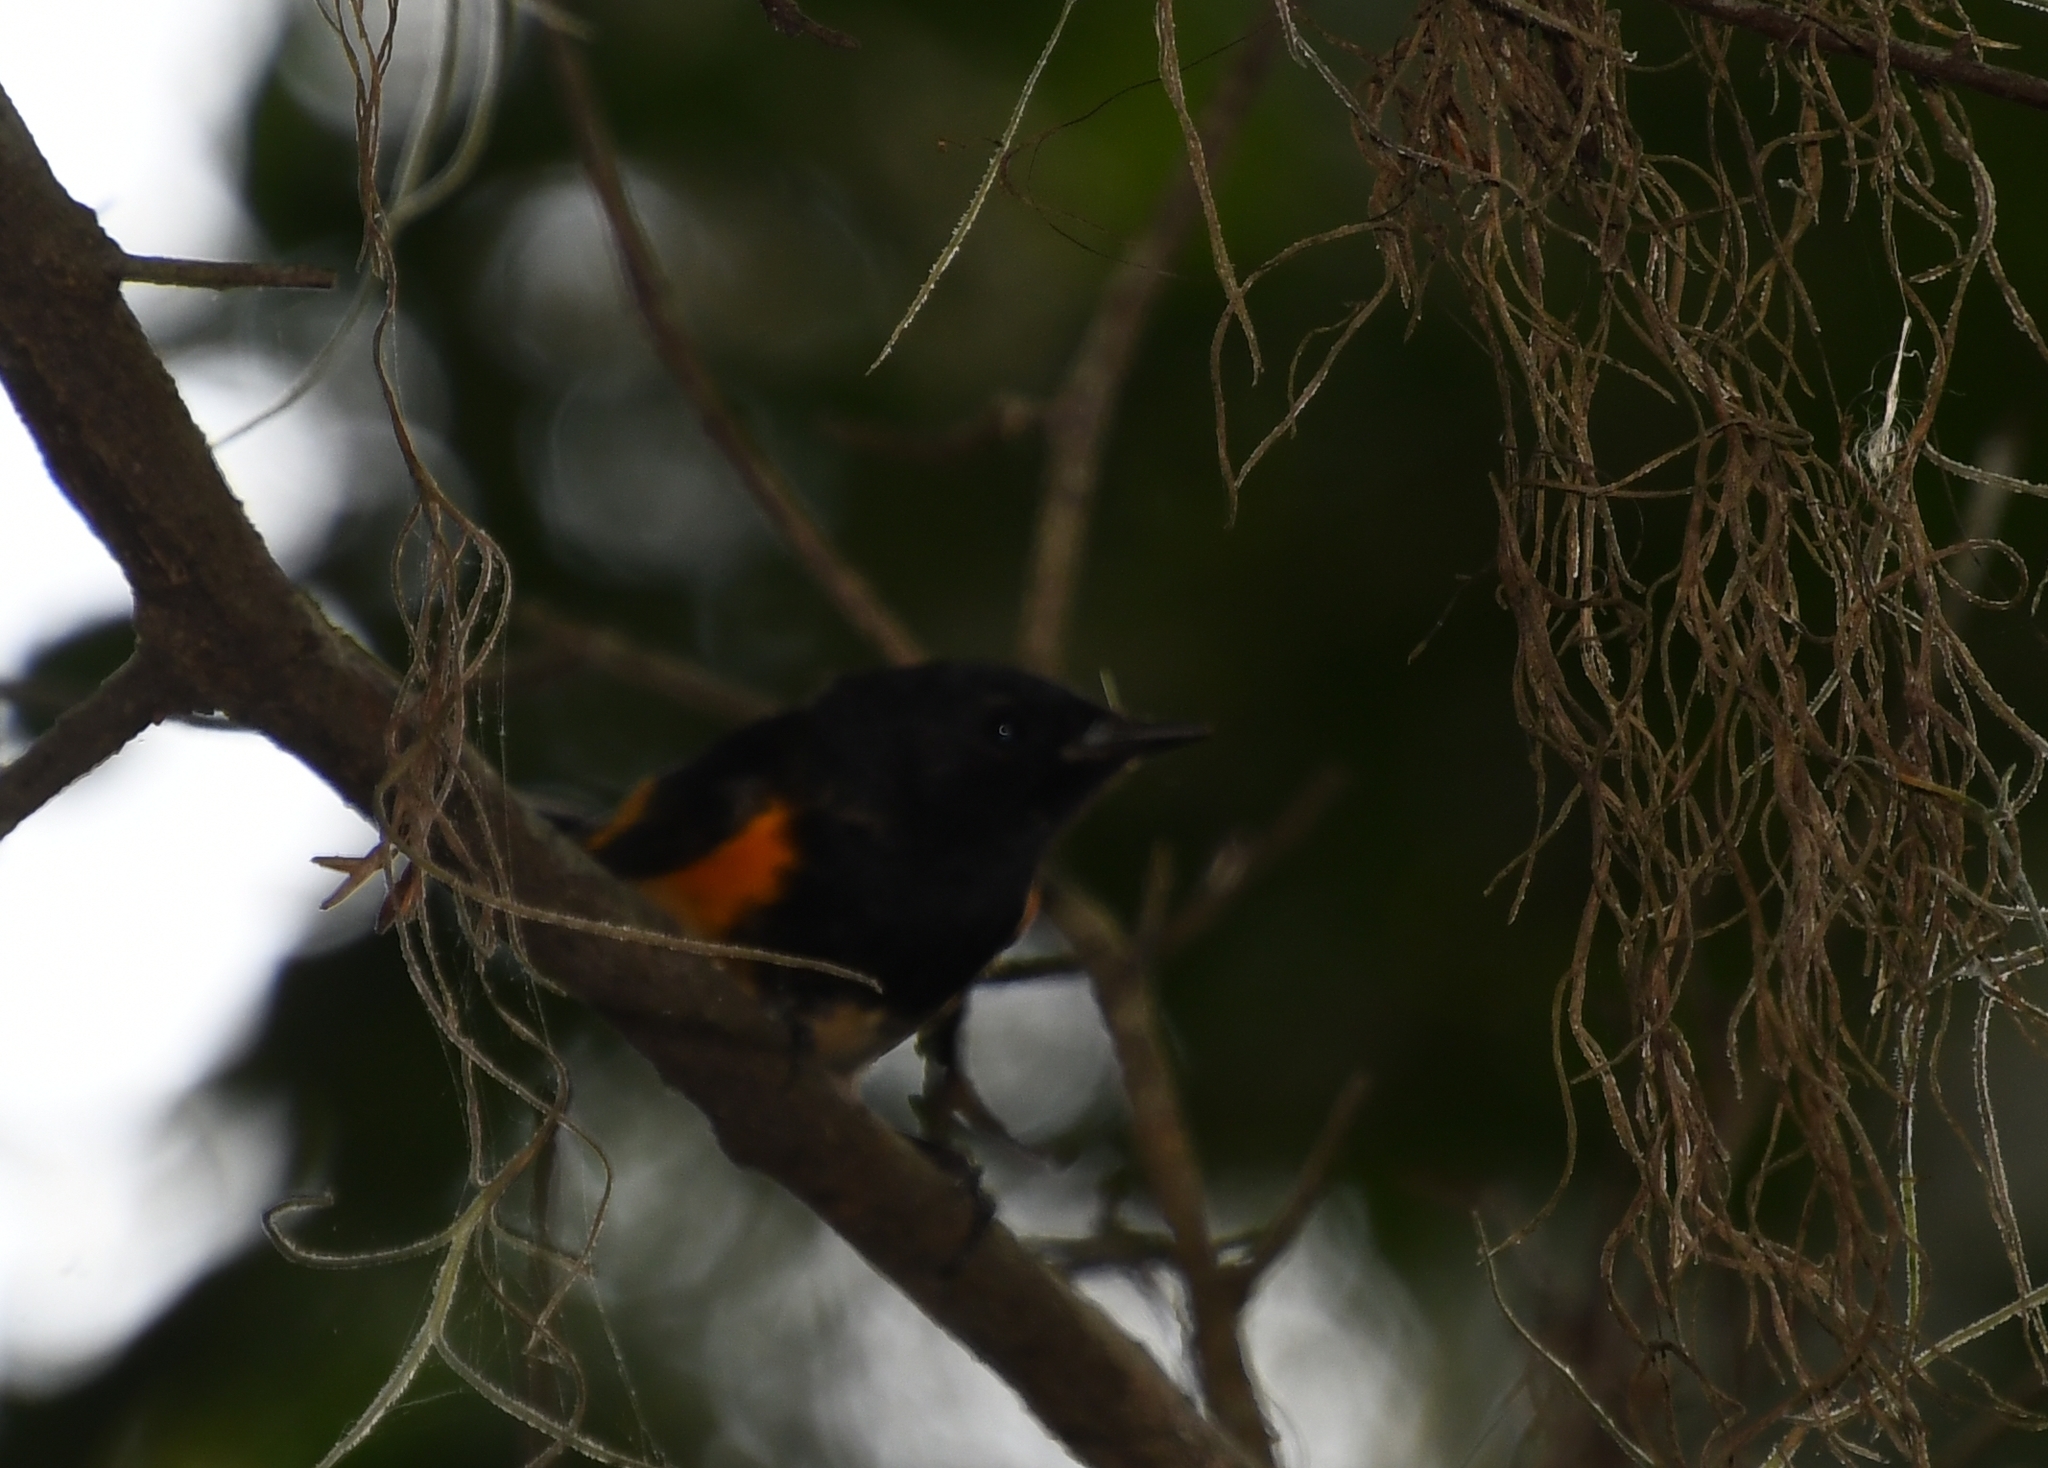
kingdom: Animalia
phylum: Chordata
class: Aves
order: Passeriformes
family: Parulidae
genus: Setophaga
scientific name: Setophaga ruticilla
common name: American redstart
